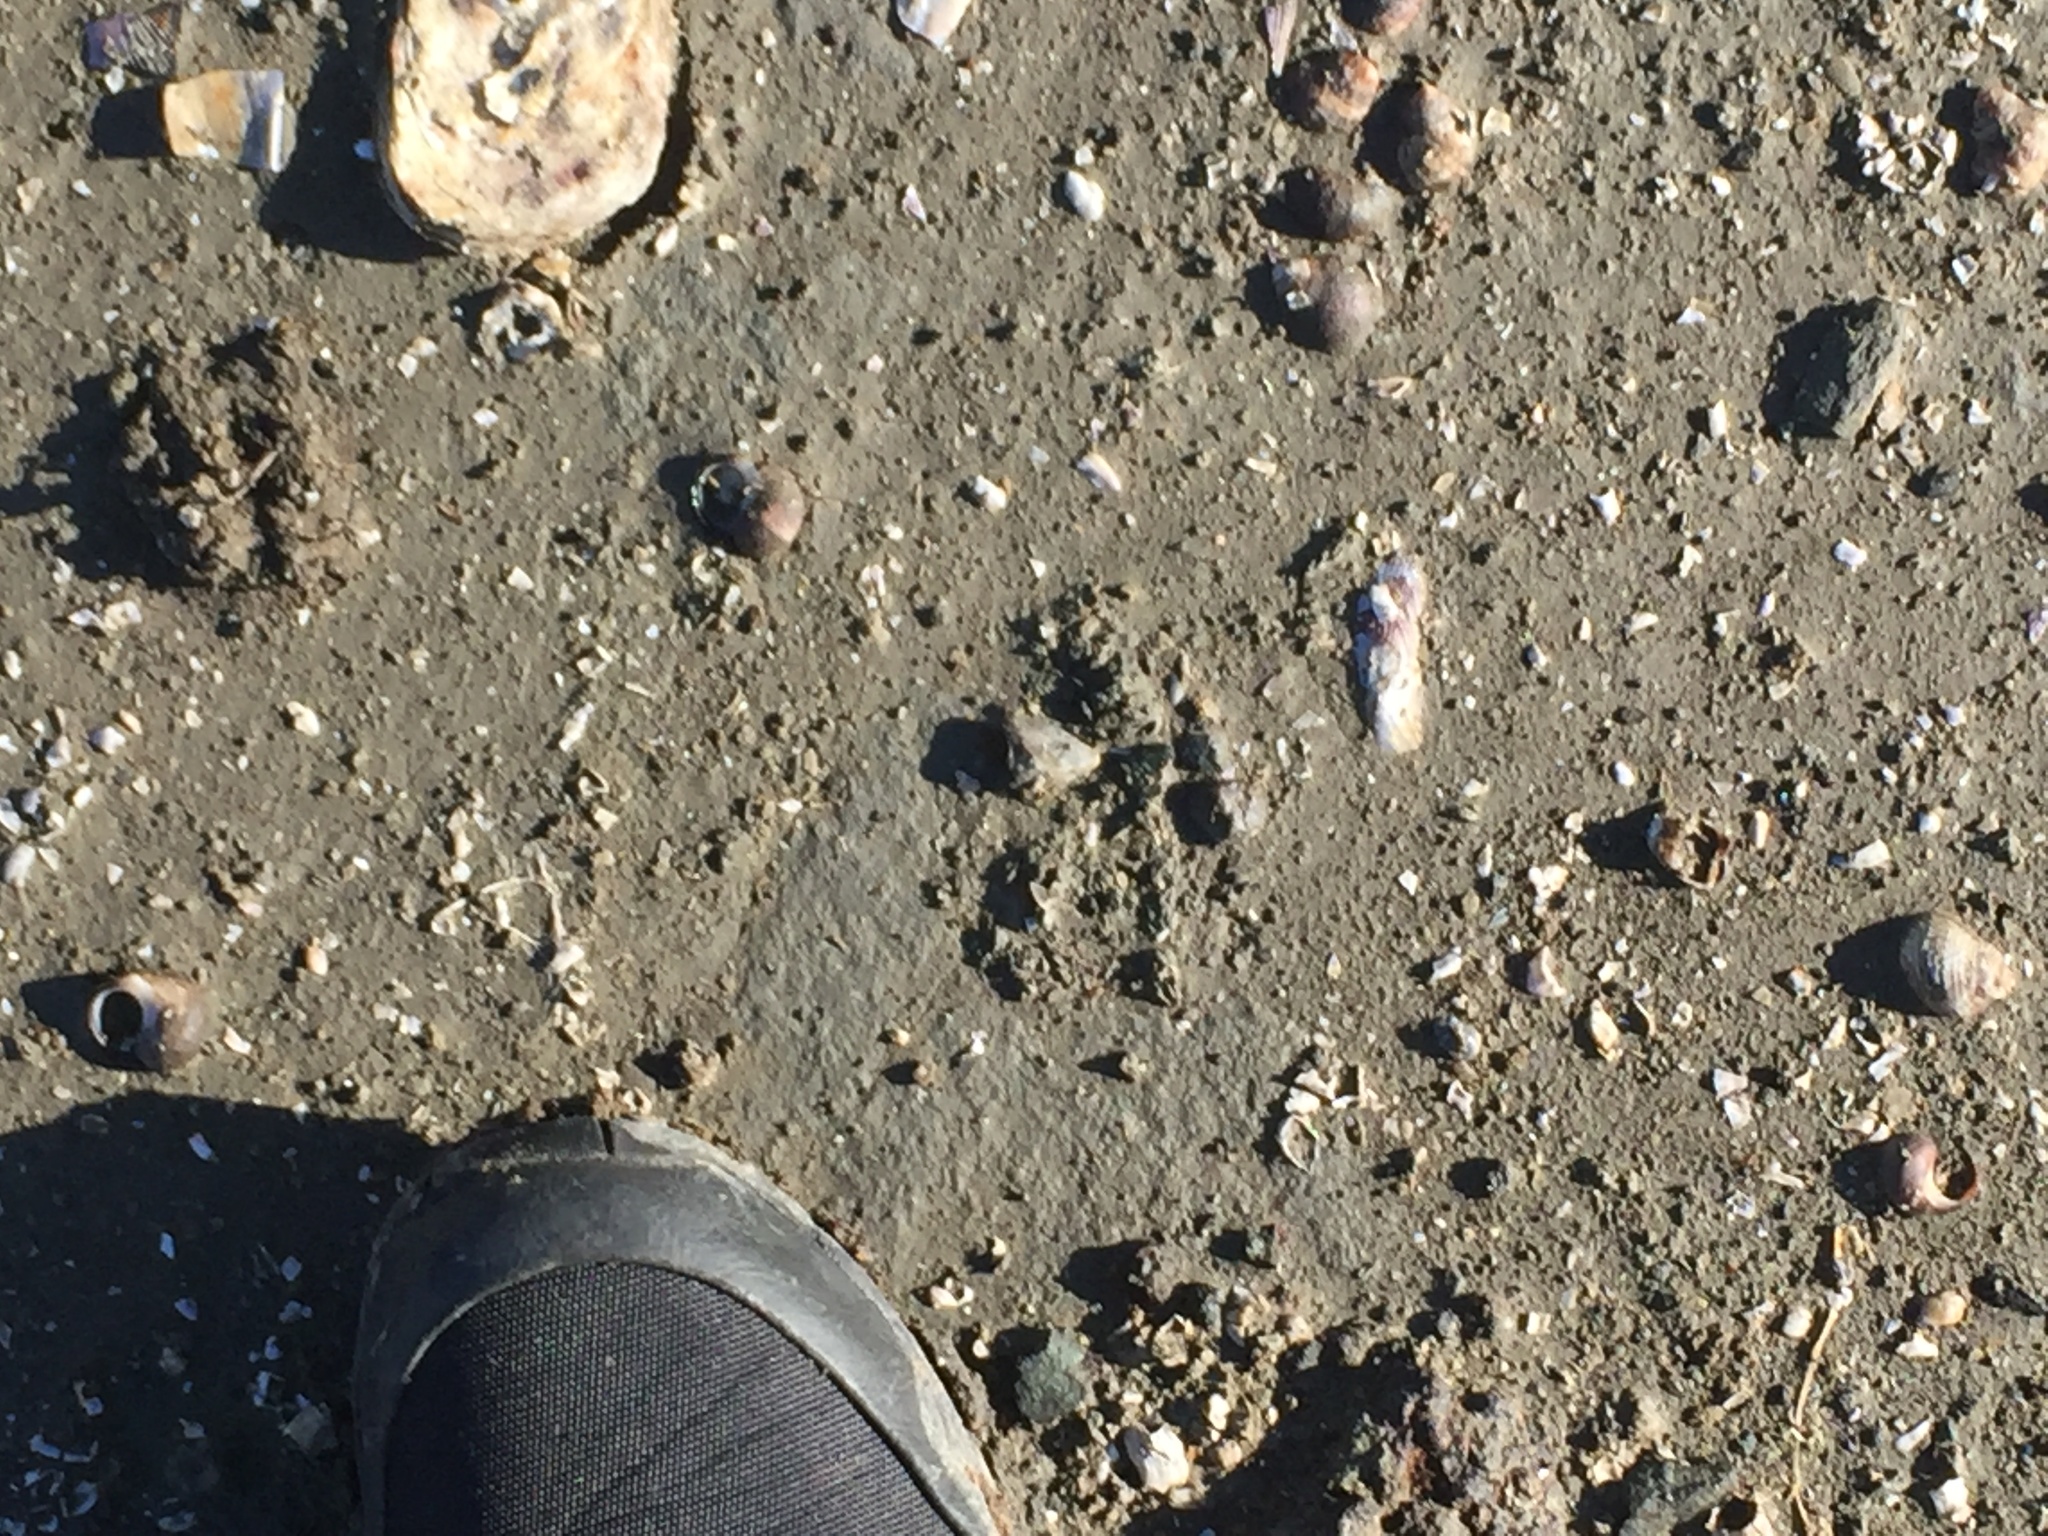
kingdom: Animalia
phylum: Mollusca
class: Gastropoda
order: Littorinimorpha
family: Littorinidae
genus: Littorina
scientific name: Littorina littorea
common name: Common periwinkle
